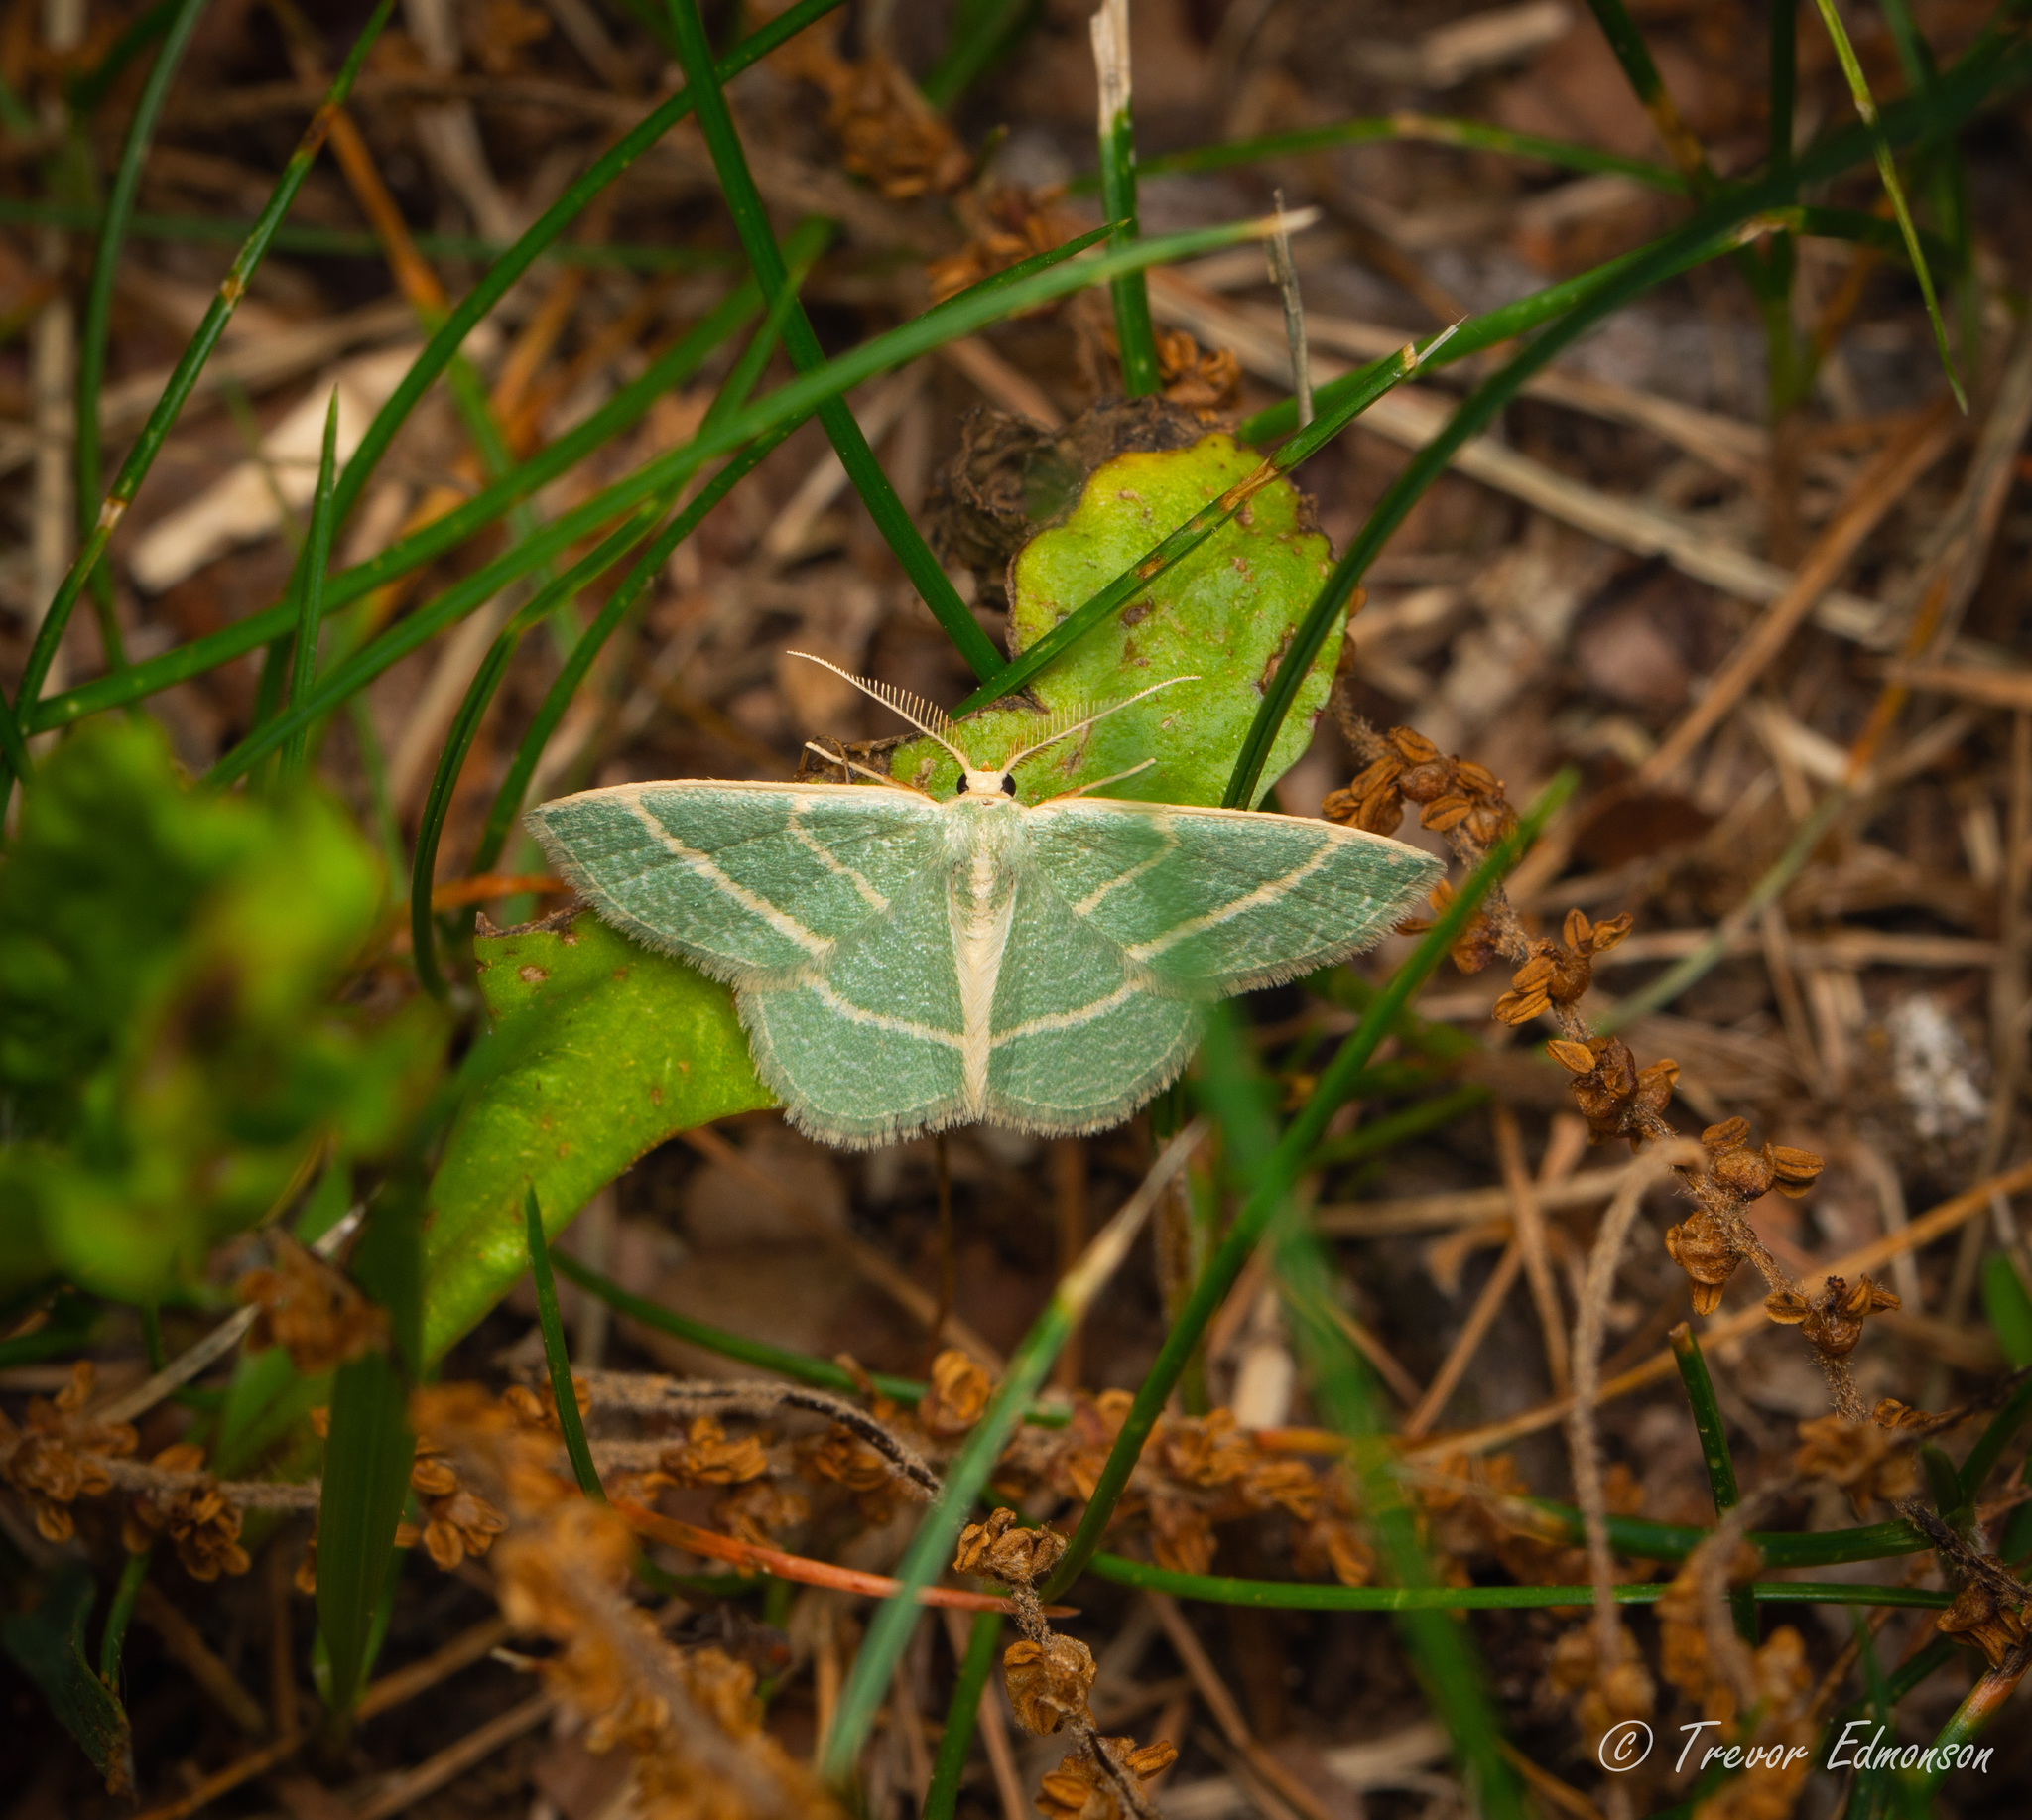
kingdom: Animalia
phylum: Arthropoda
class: Insecta
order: Lepidoptera
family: Geometridae
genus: Chlorochlamys
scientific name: Chlorochlamys chloroleucaria
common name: Blackberry looper
